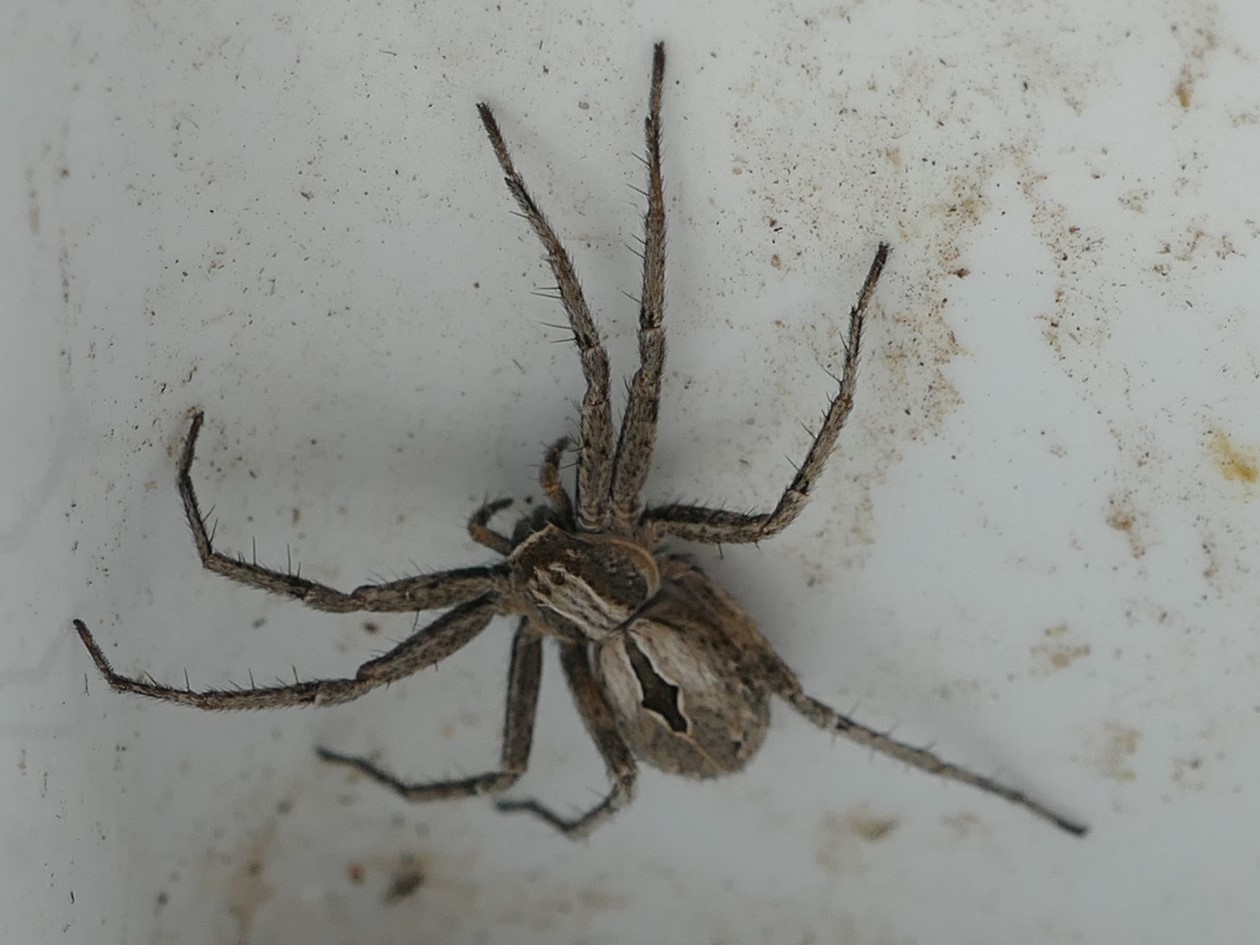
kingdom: Animalia
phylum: Arthropoda
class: Arachnida
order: Araneae
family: Philodromidae
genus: Thanatus
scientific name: Thanatus lineatipes
